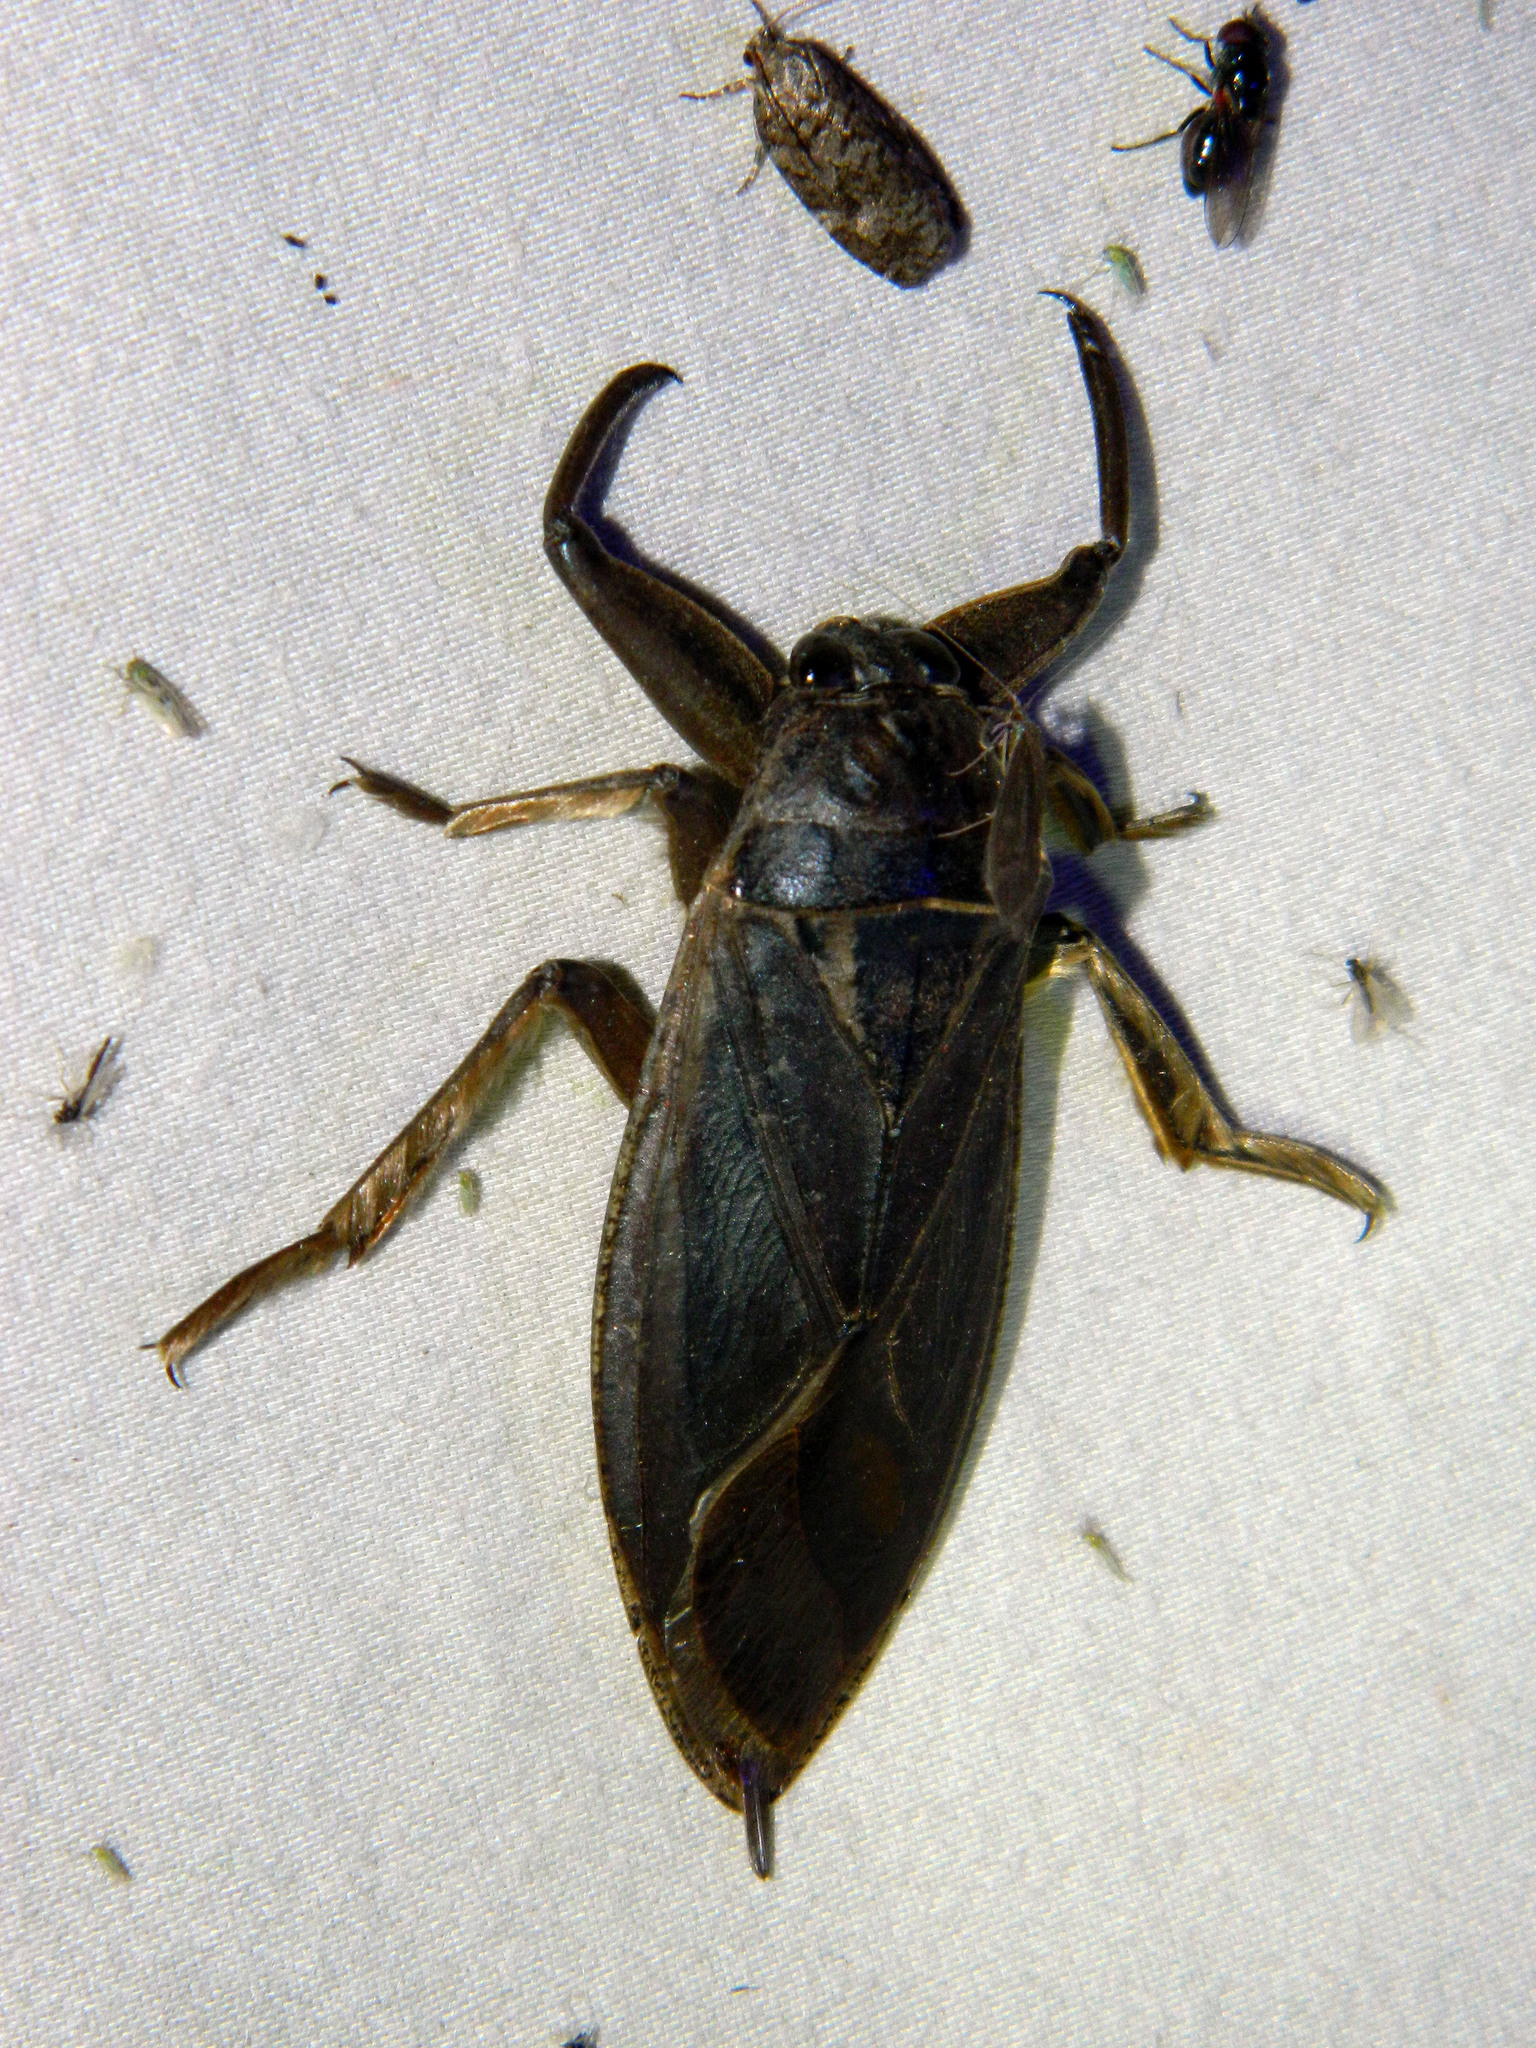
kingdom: Animalia
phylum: Arthropoda
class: Insecta
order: Hemiptera
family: Belostomatidae
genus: Lethocerus
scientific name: Lethocerus americanus
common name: Giant water bug
